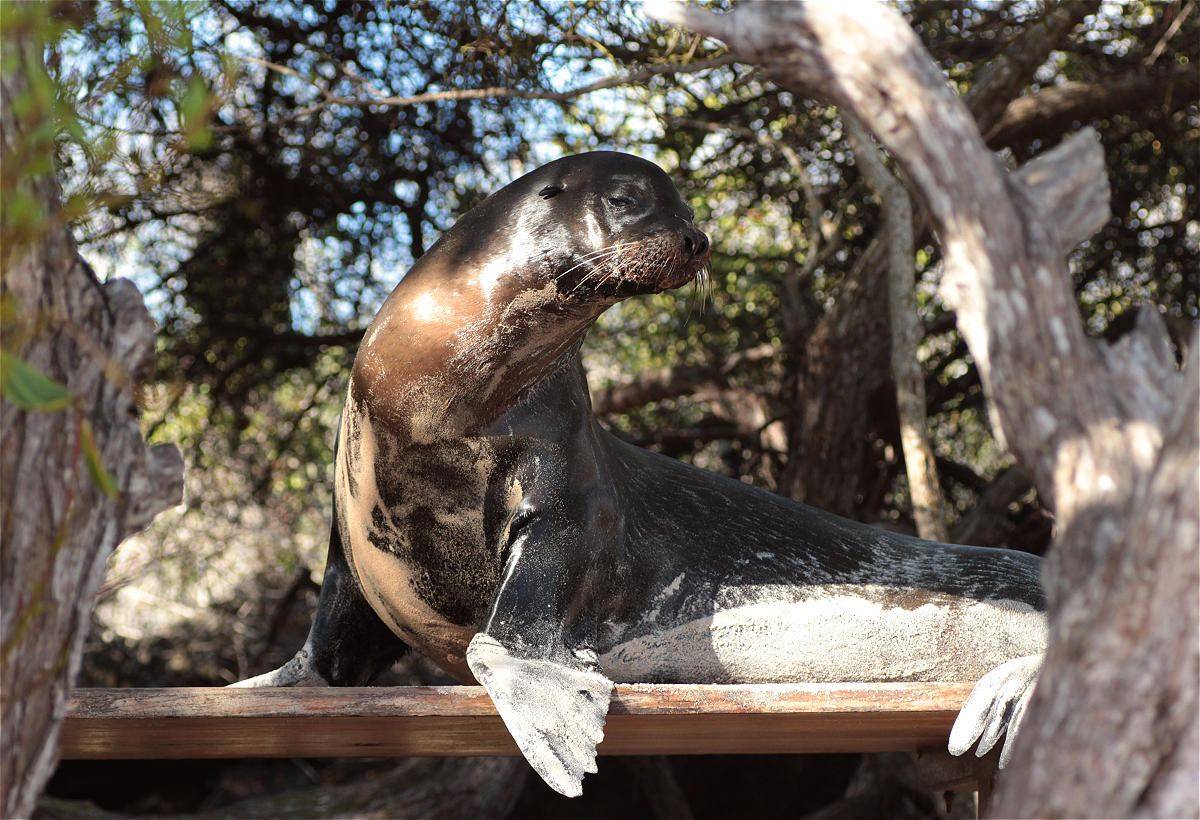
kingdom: Animalia
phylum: Chordata
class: Mammalia
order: Carnivora
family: Otariidae
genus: Zalophus
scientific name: Zalophus wollebaeki
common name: Galapagos sea lion
